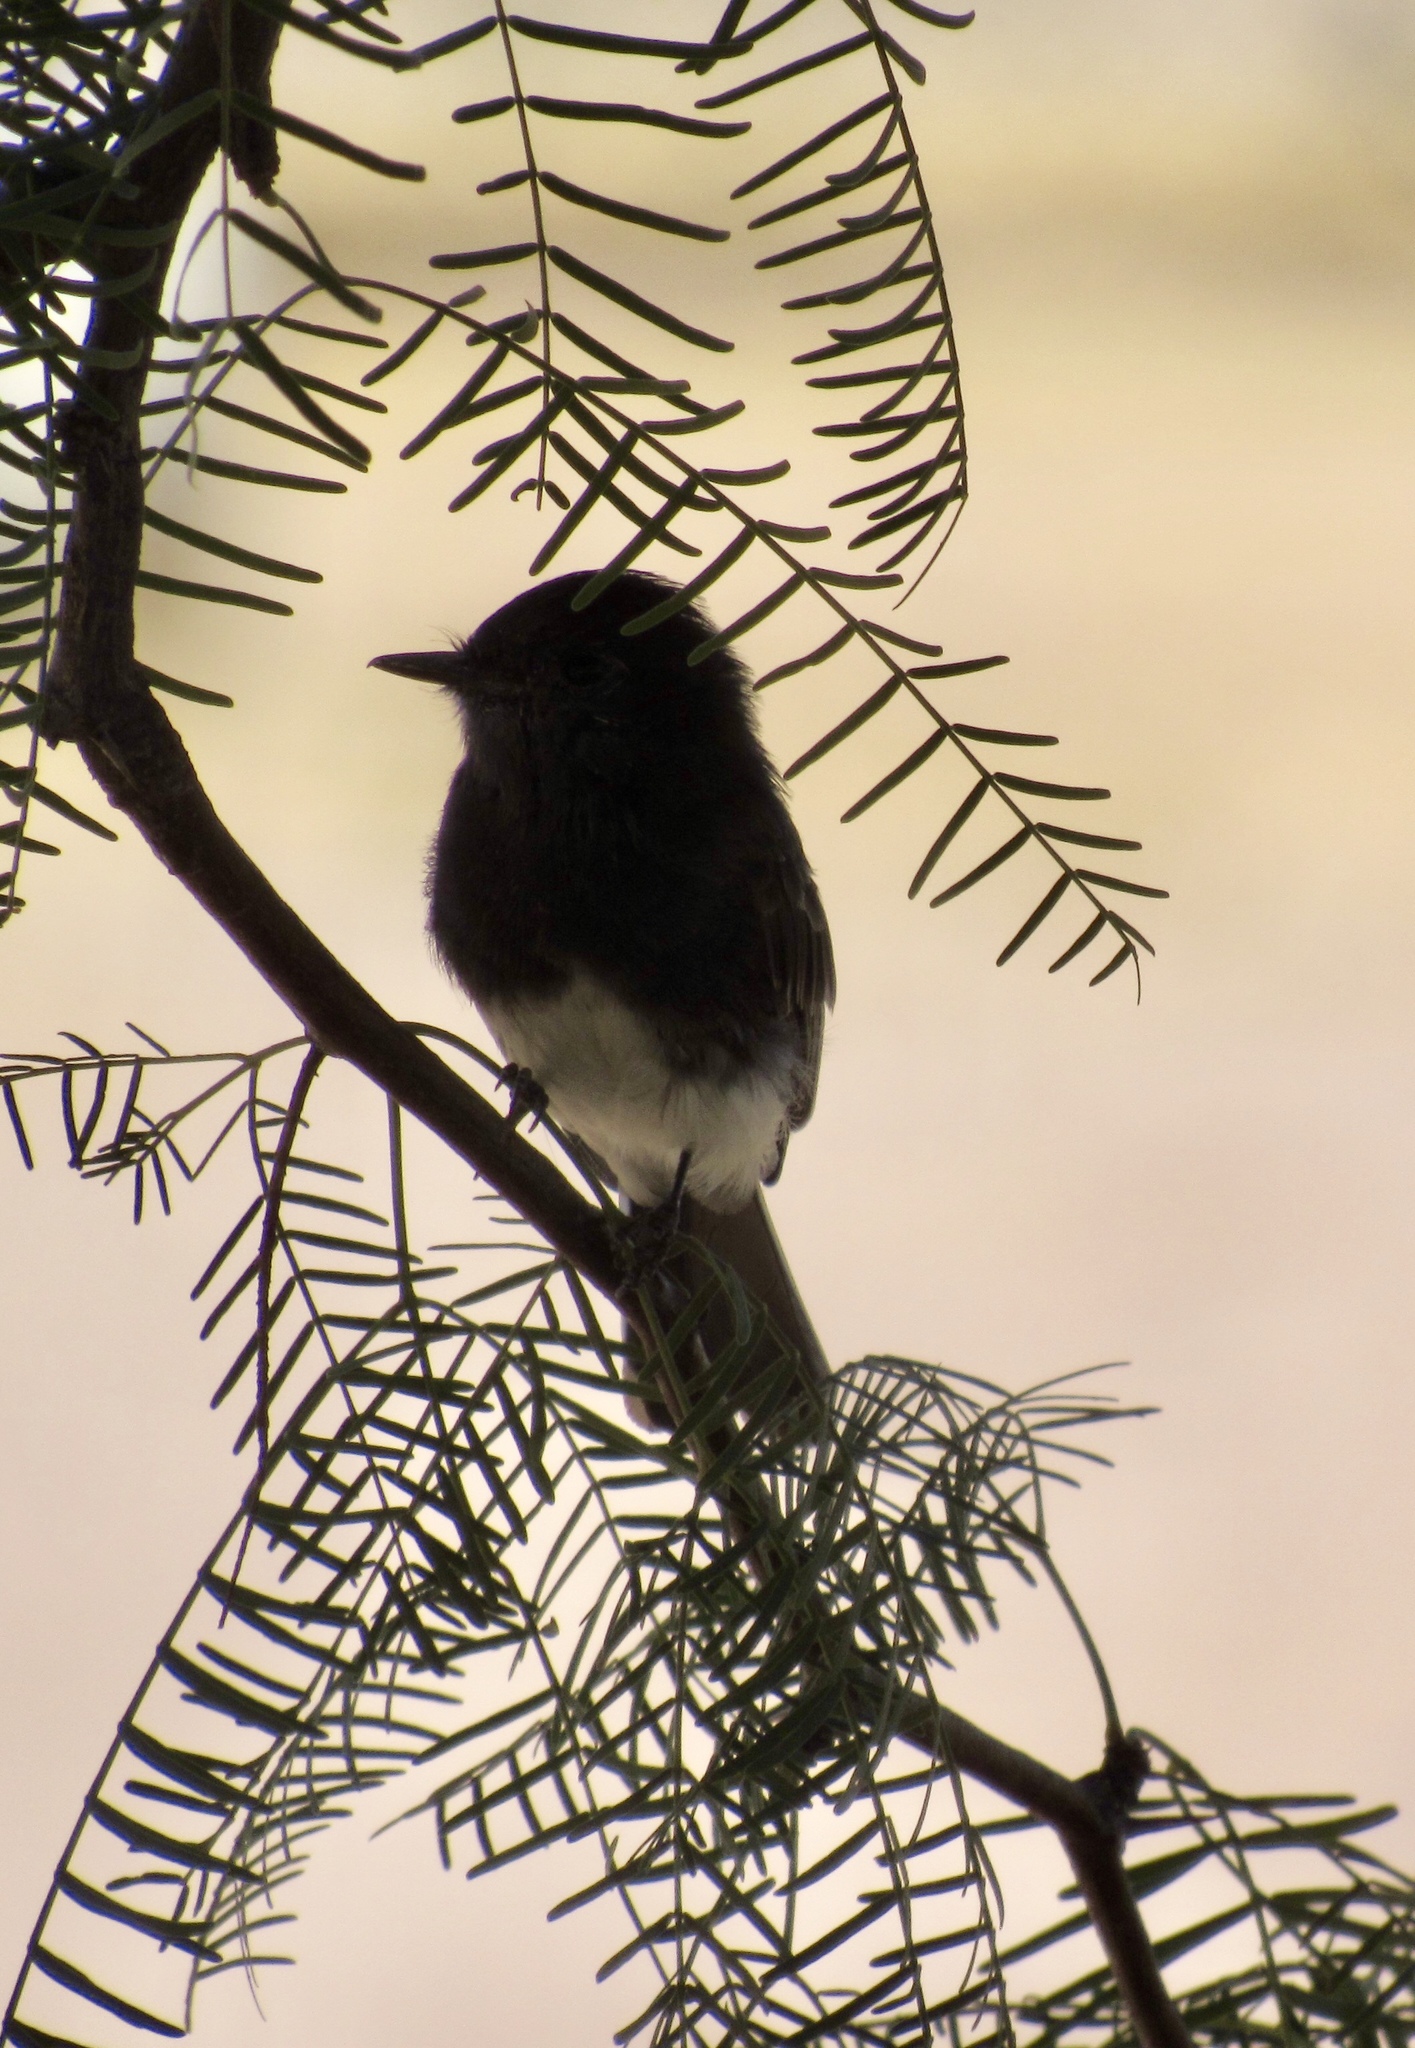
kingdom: Animalia
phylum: Chordata
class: Aves
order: Passeriformes
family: Tyrannidae
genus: Sayornis
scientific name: Sayornis nigricans
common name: Black phoebe
